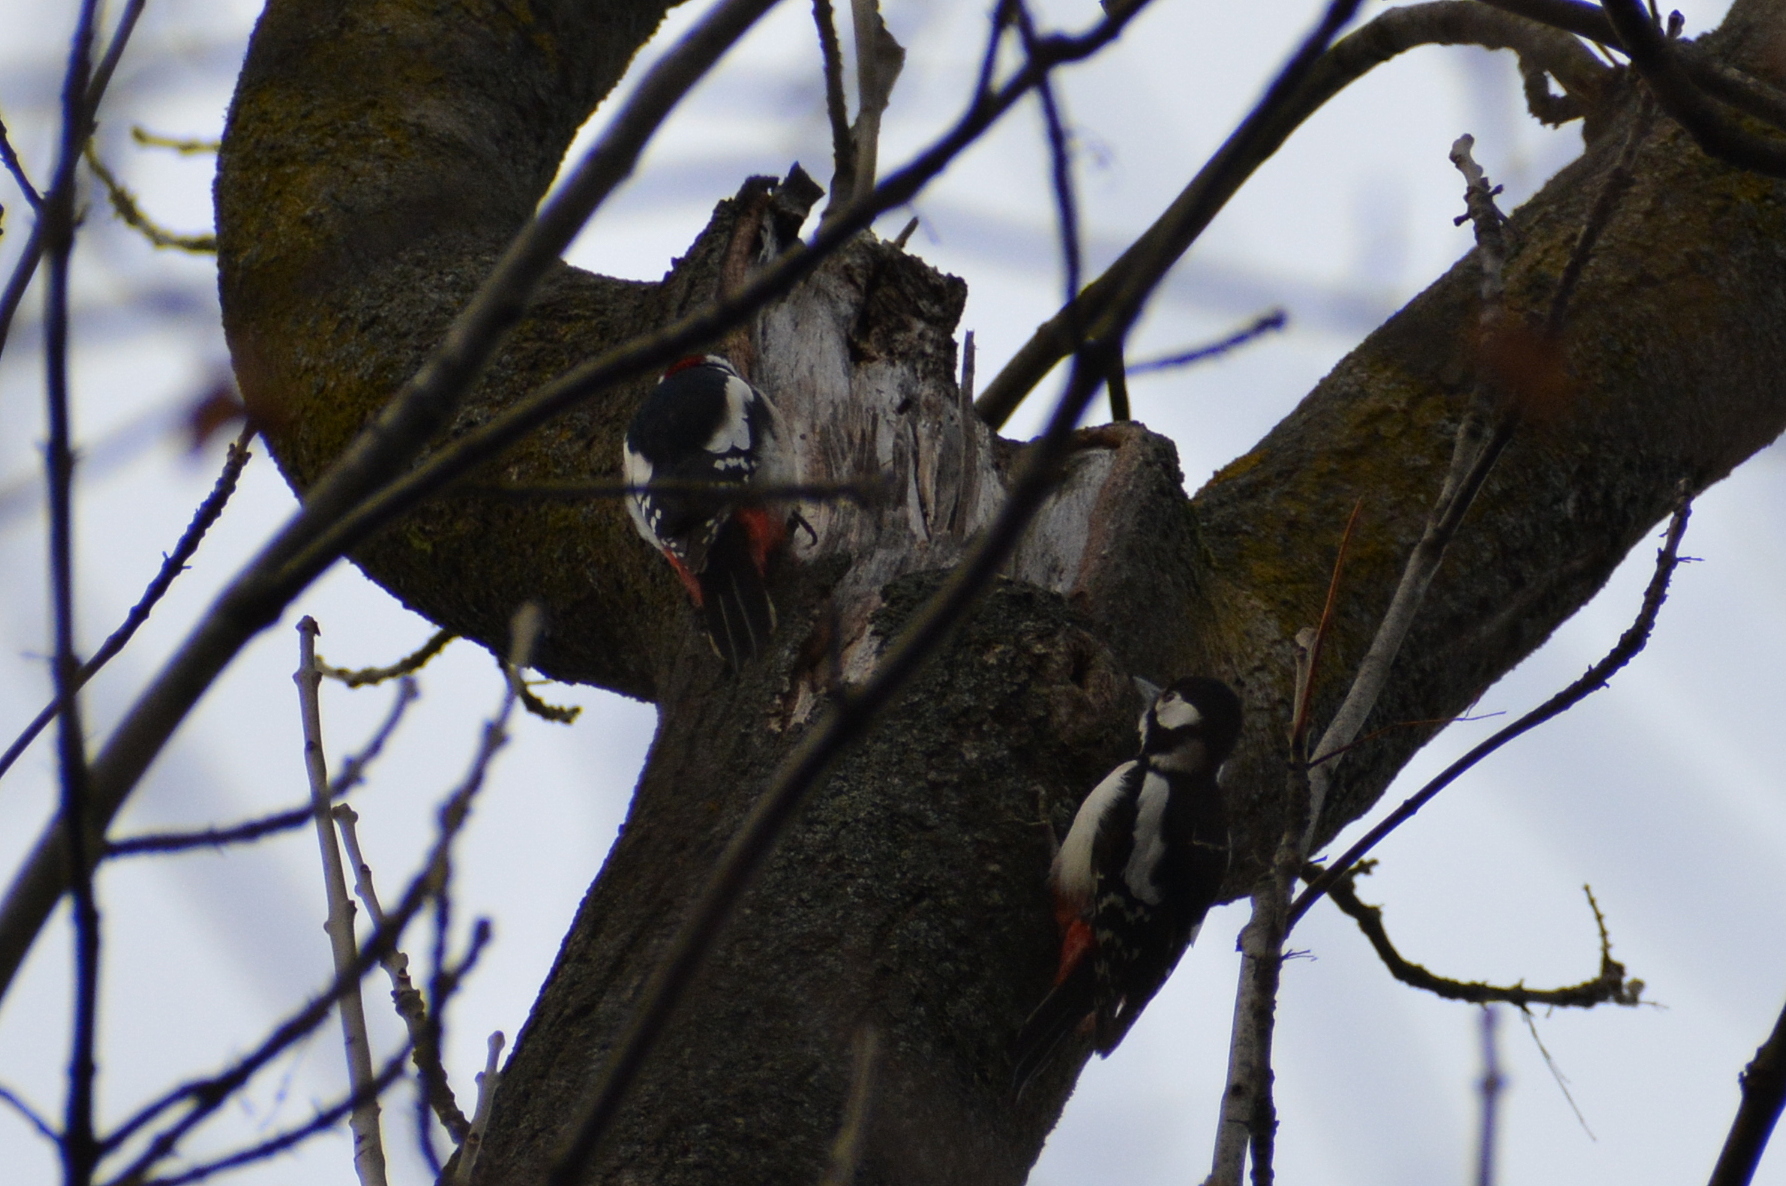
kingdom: Animalia
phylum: Chordata
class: Aves
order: Piciformes
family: Picidae
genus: Dendrocopos
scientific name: Dendrocopos major
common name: Great spotted woodpecker
